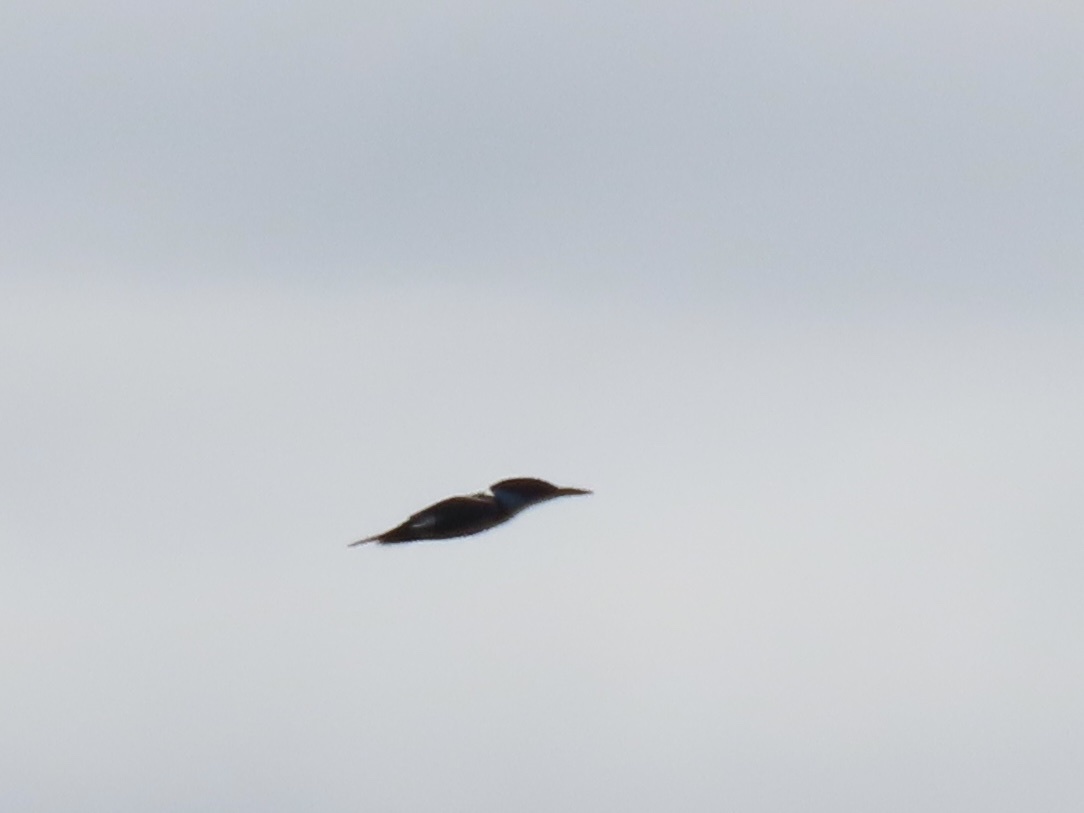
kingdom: Animalia
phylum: Chordata
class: Aves
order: Coraciiformes
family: Alcedinidae
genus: Megaceryle
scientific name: Megaceryle alcyon
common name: Belted kingfisher
